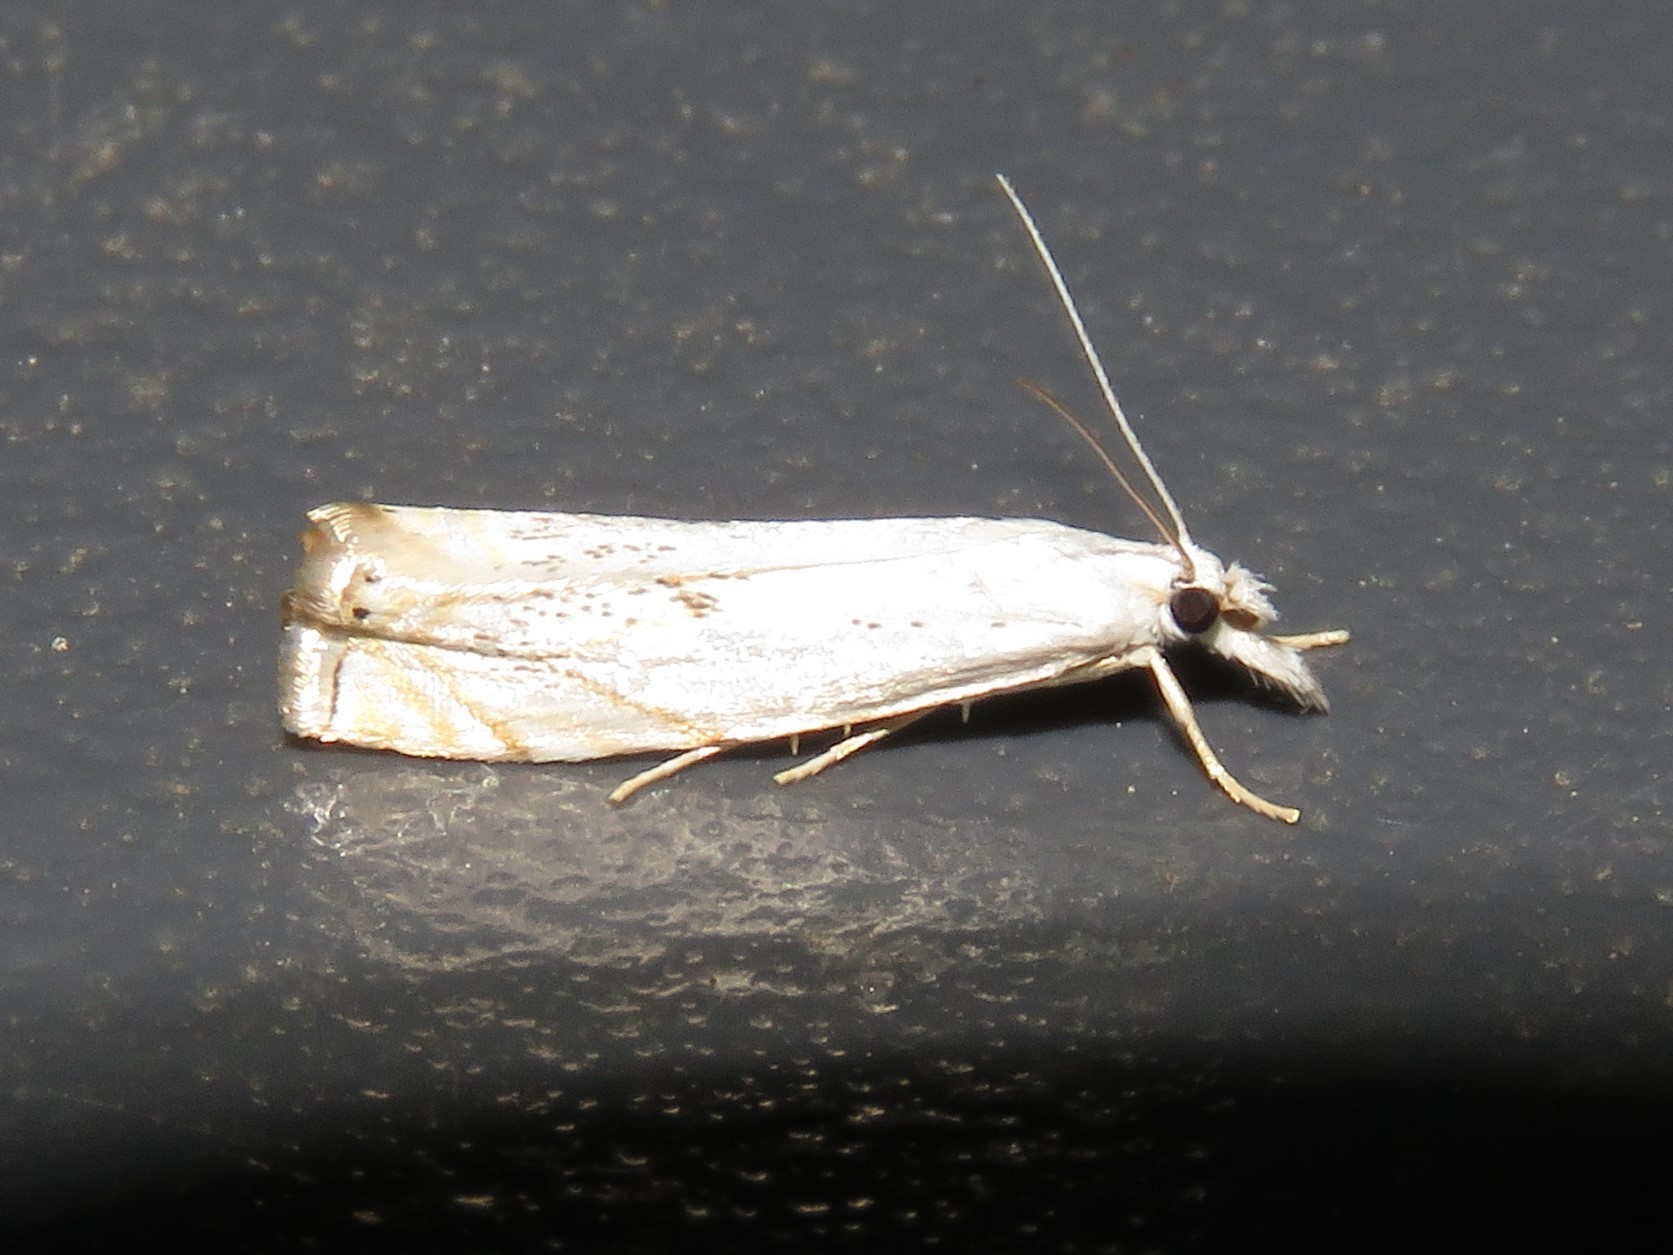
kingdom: Animalia
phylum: Arthropoda
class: Insecta
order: Lepidoptera
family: Crambidae
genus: Crambus
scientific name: Crambus albellus
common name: Small white grass-veneer
